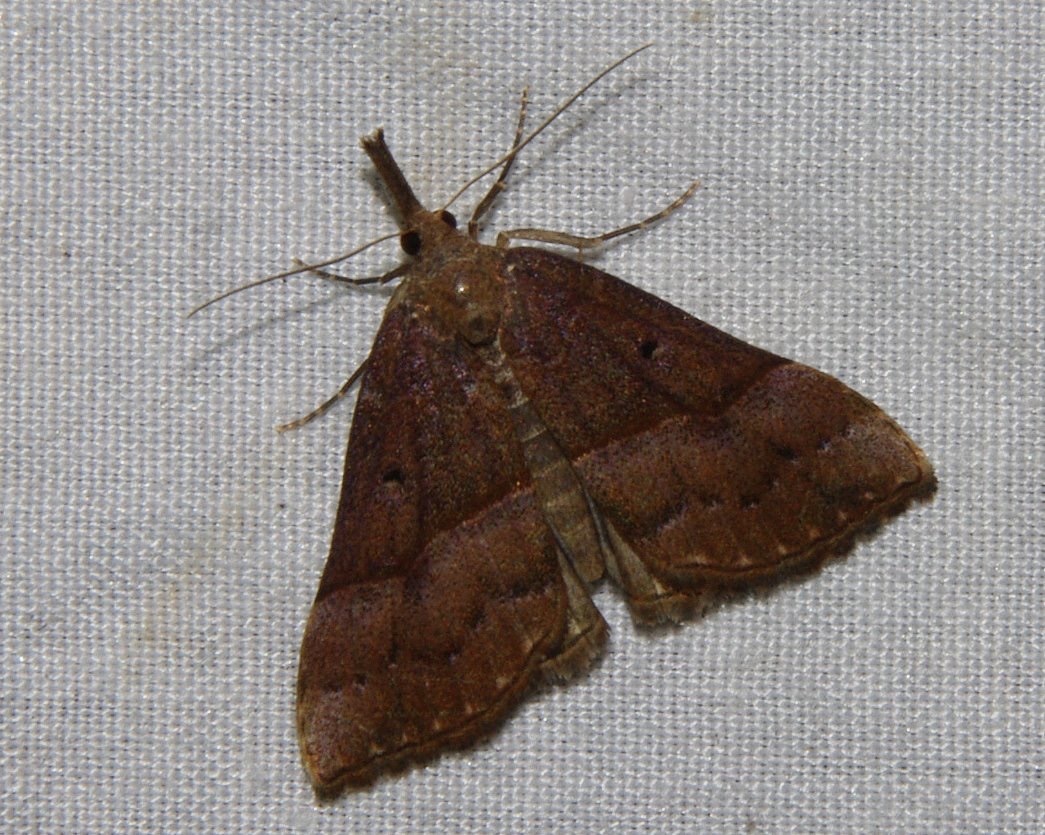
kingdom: Animalia
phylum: Arthropoda
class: Insecta
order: Lepidoptera
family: Erebidae
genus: Hypena
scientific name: Hypena eductalis
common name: Red-footed snout
